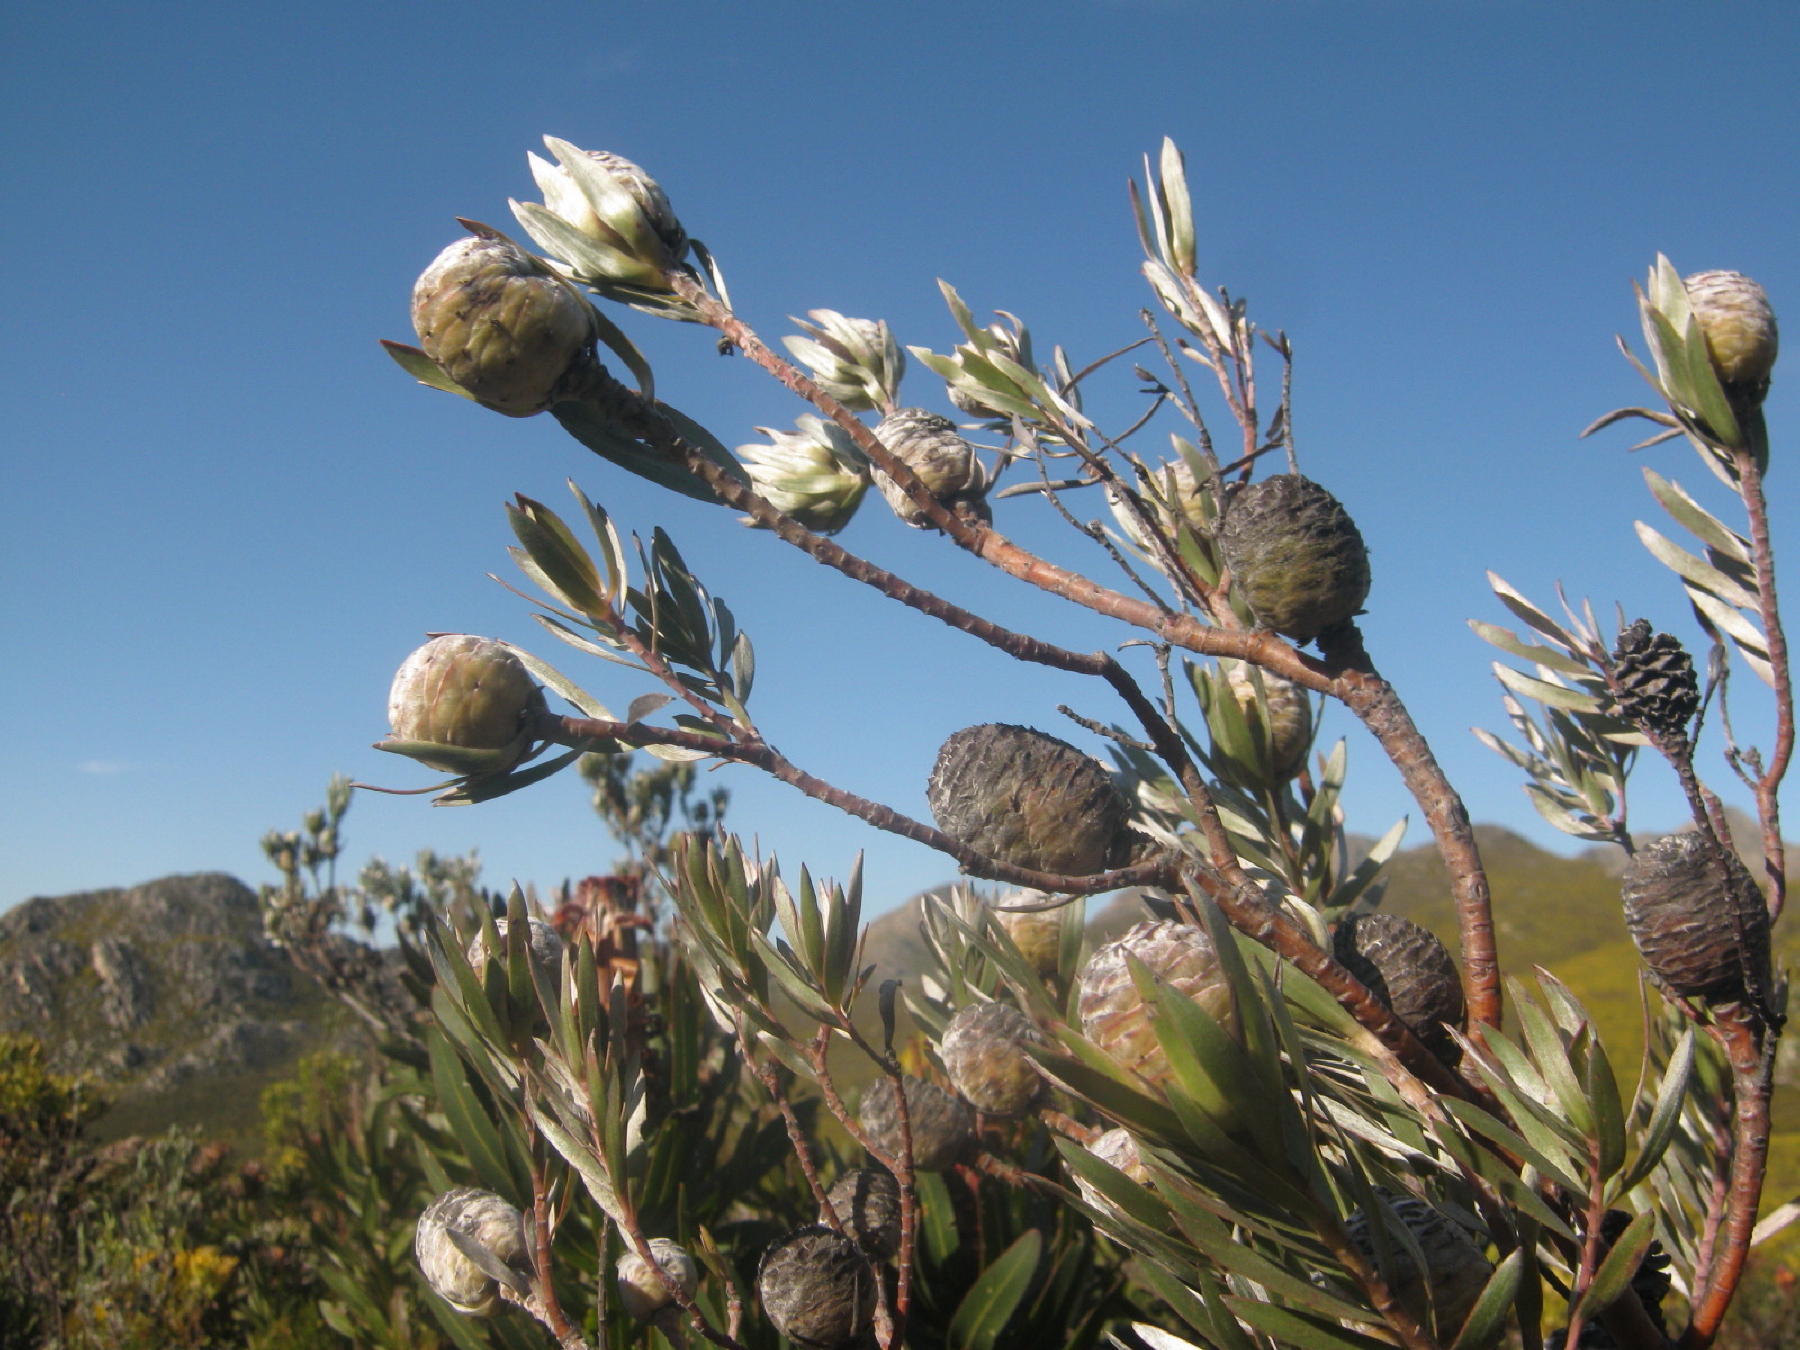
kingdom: Plantae
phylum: Tracheophyta
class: Magnoliopsida
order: Proteales
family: Proteaceae
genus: Leucadendron
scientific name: Leucadendron uliginosum
